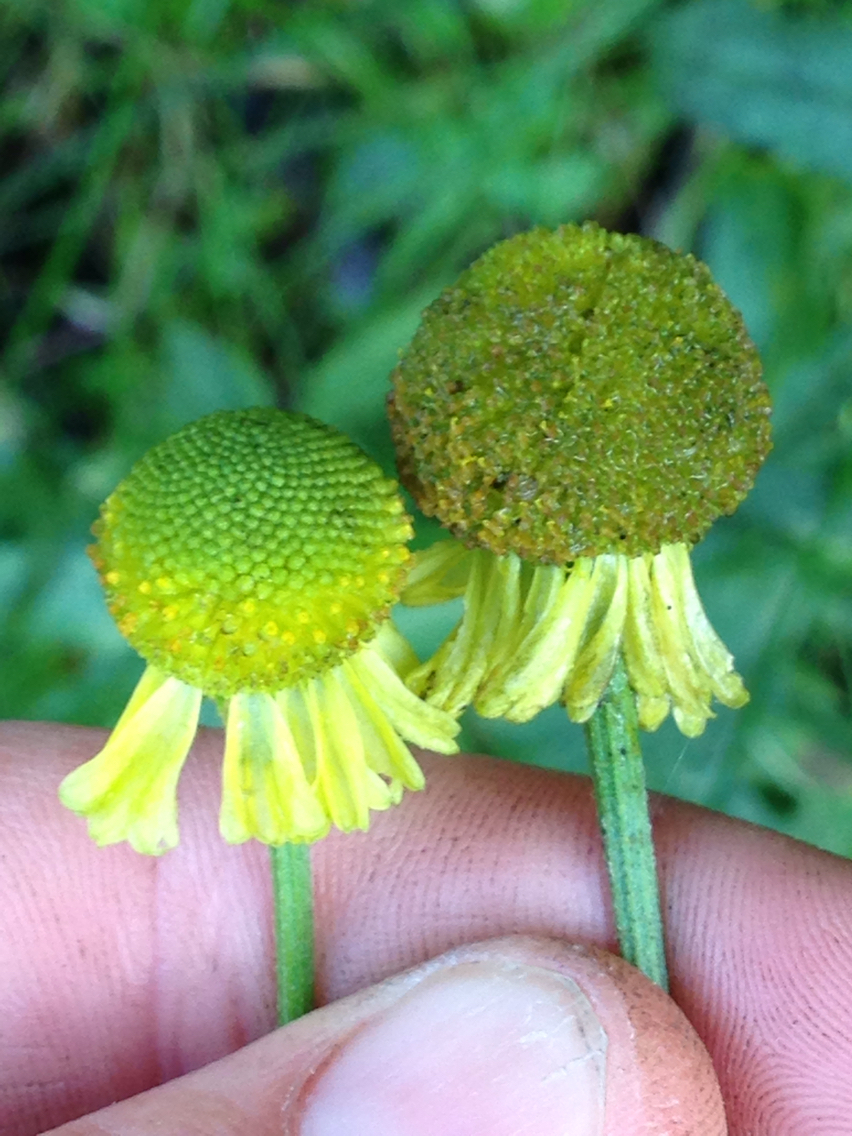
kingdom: Plantae
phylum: Tracheophyta
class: Magnoliopsida
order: Asterales
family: Asteraceae
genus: Helenium
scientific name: Helenium puberulum
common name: Sneezewort
